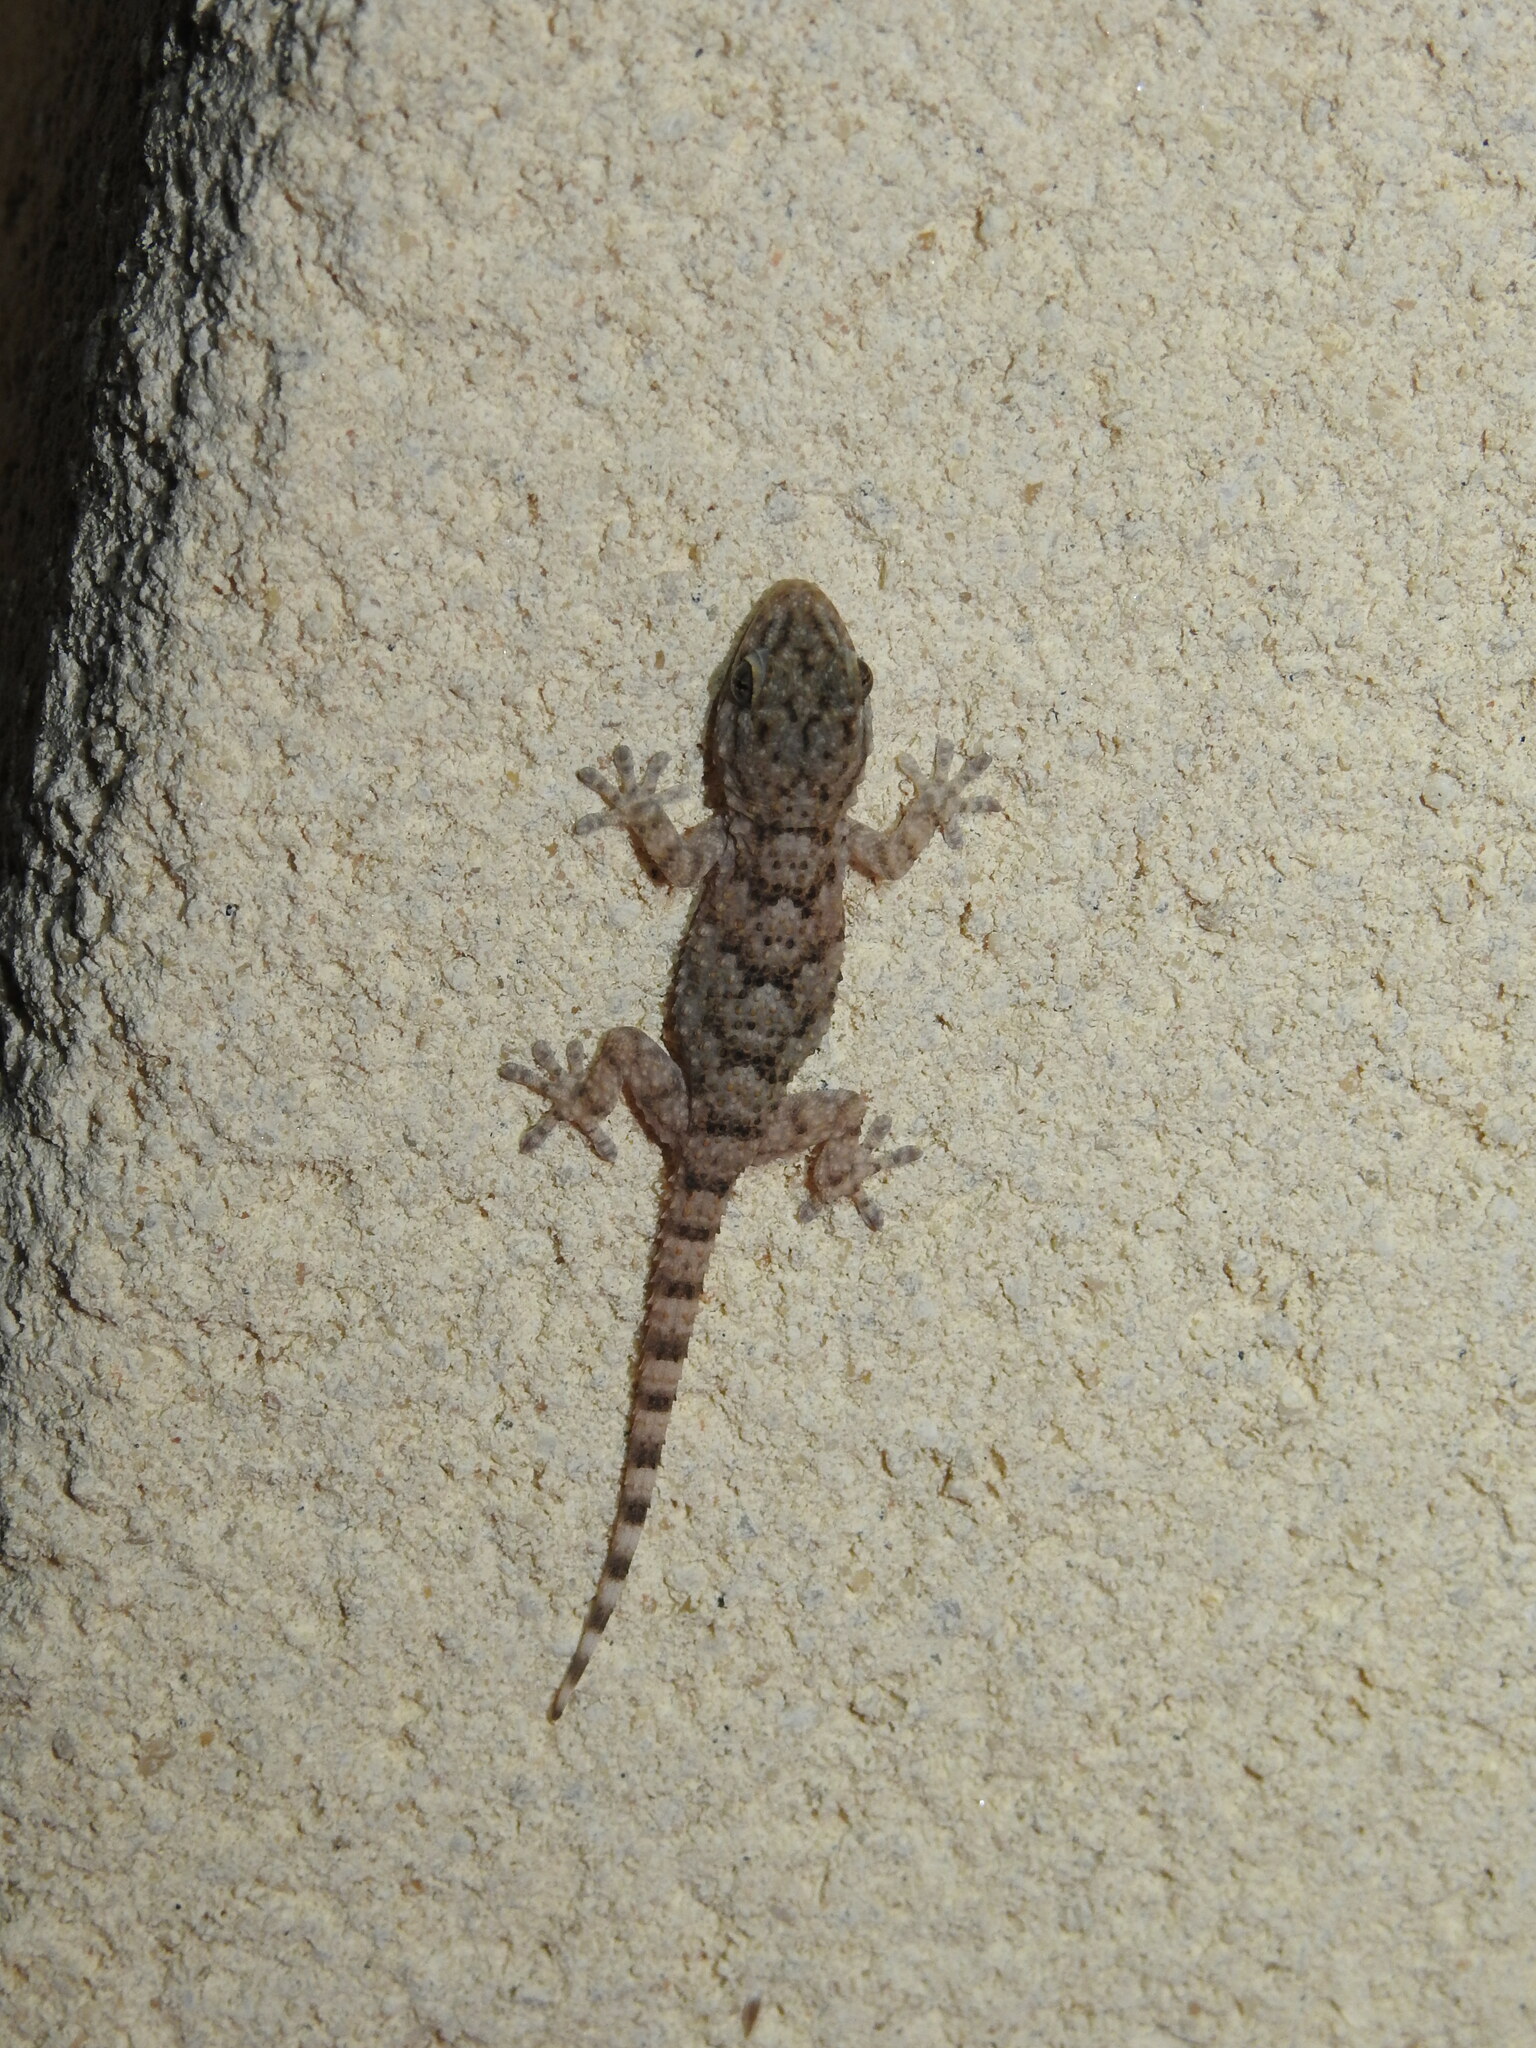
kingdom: Animalia
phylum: Chordata
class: Squamata
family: Phyllodactylidae
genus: Tarentola
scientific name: Tarentola mauritanica
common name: Moorish gecko
